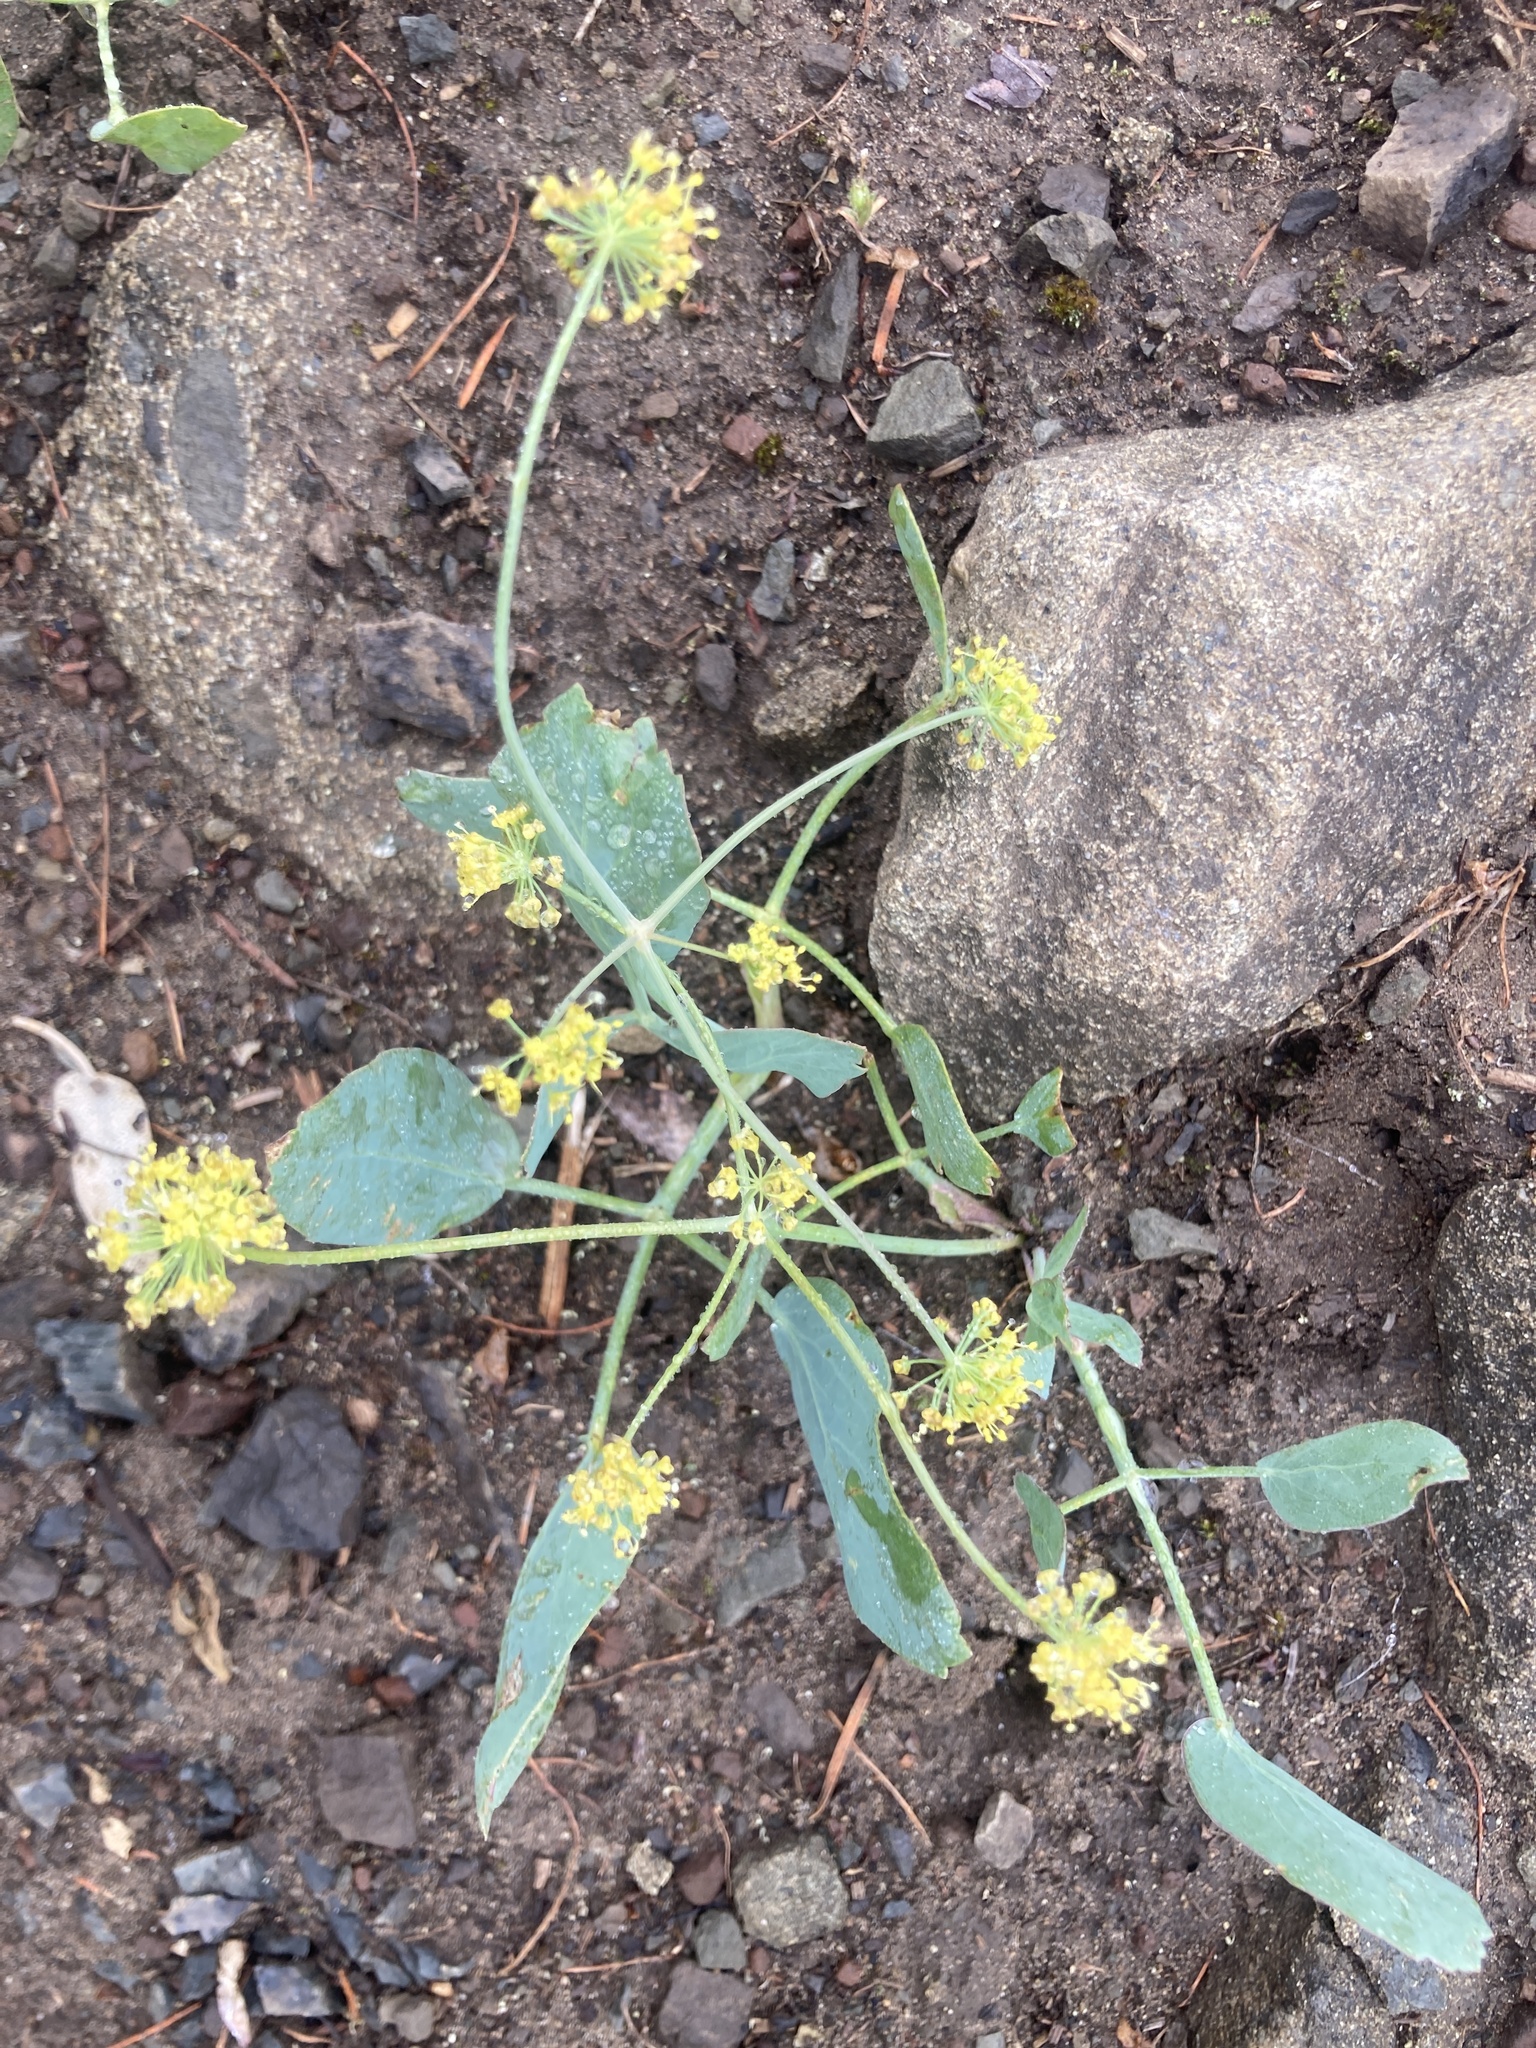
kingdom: Plantae
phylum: Tracheophyta
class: Magnoliopsida
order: Apiales
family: Apiaceae
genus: Lomatium
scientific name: Lomatium nudicaule
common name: Pestle lomatium
